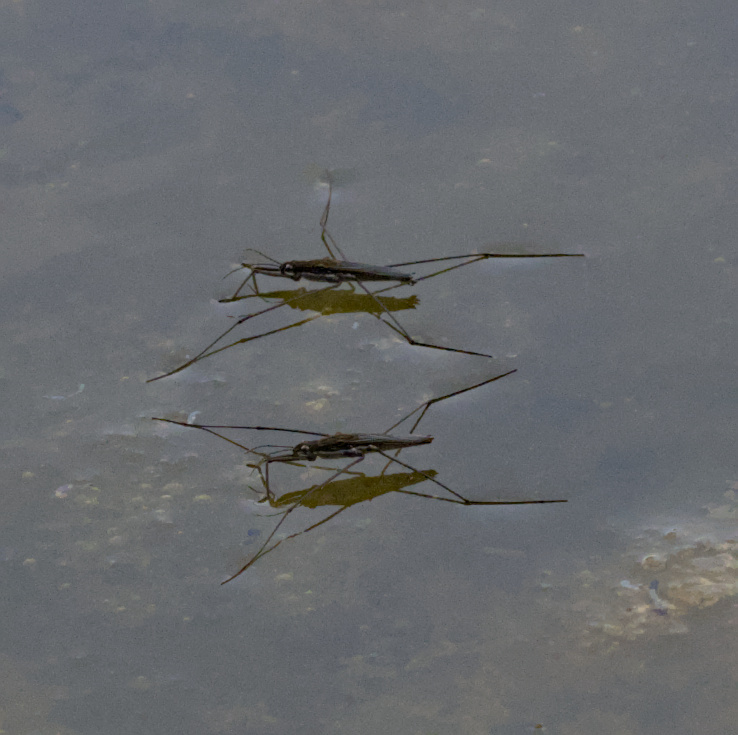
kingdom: Animalia
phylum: Arthropoda
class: Insecta
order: Hemiptera
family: Gerridae
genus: Aquarius
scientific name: Aquarius paludum
